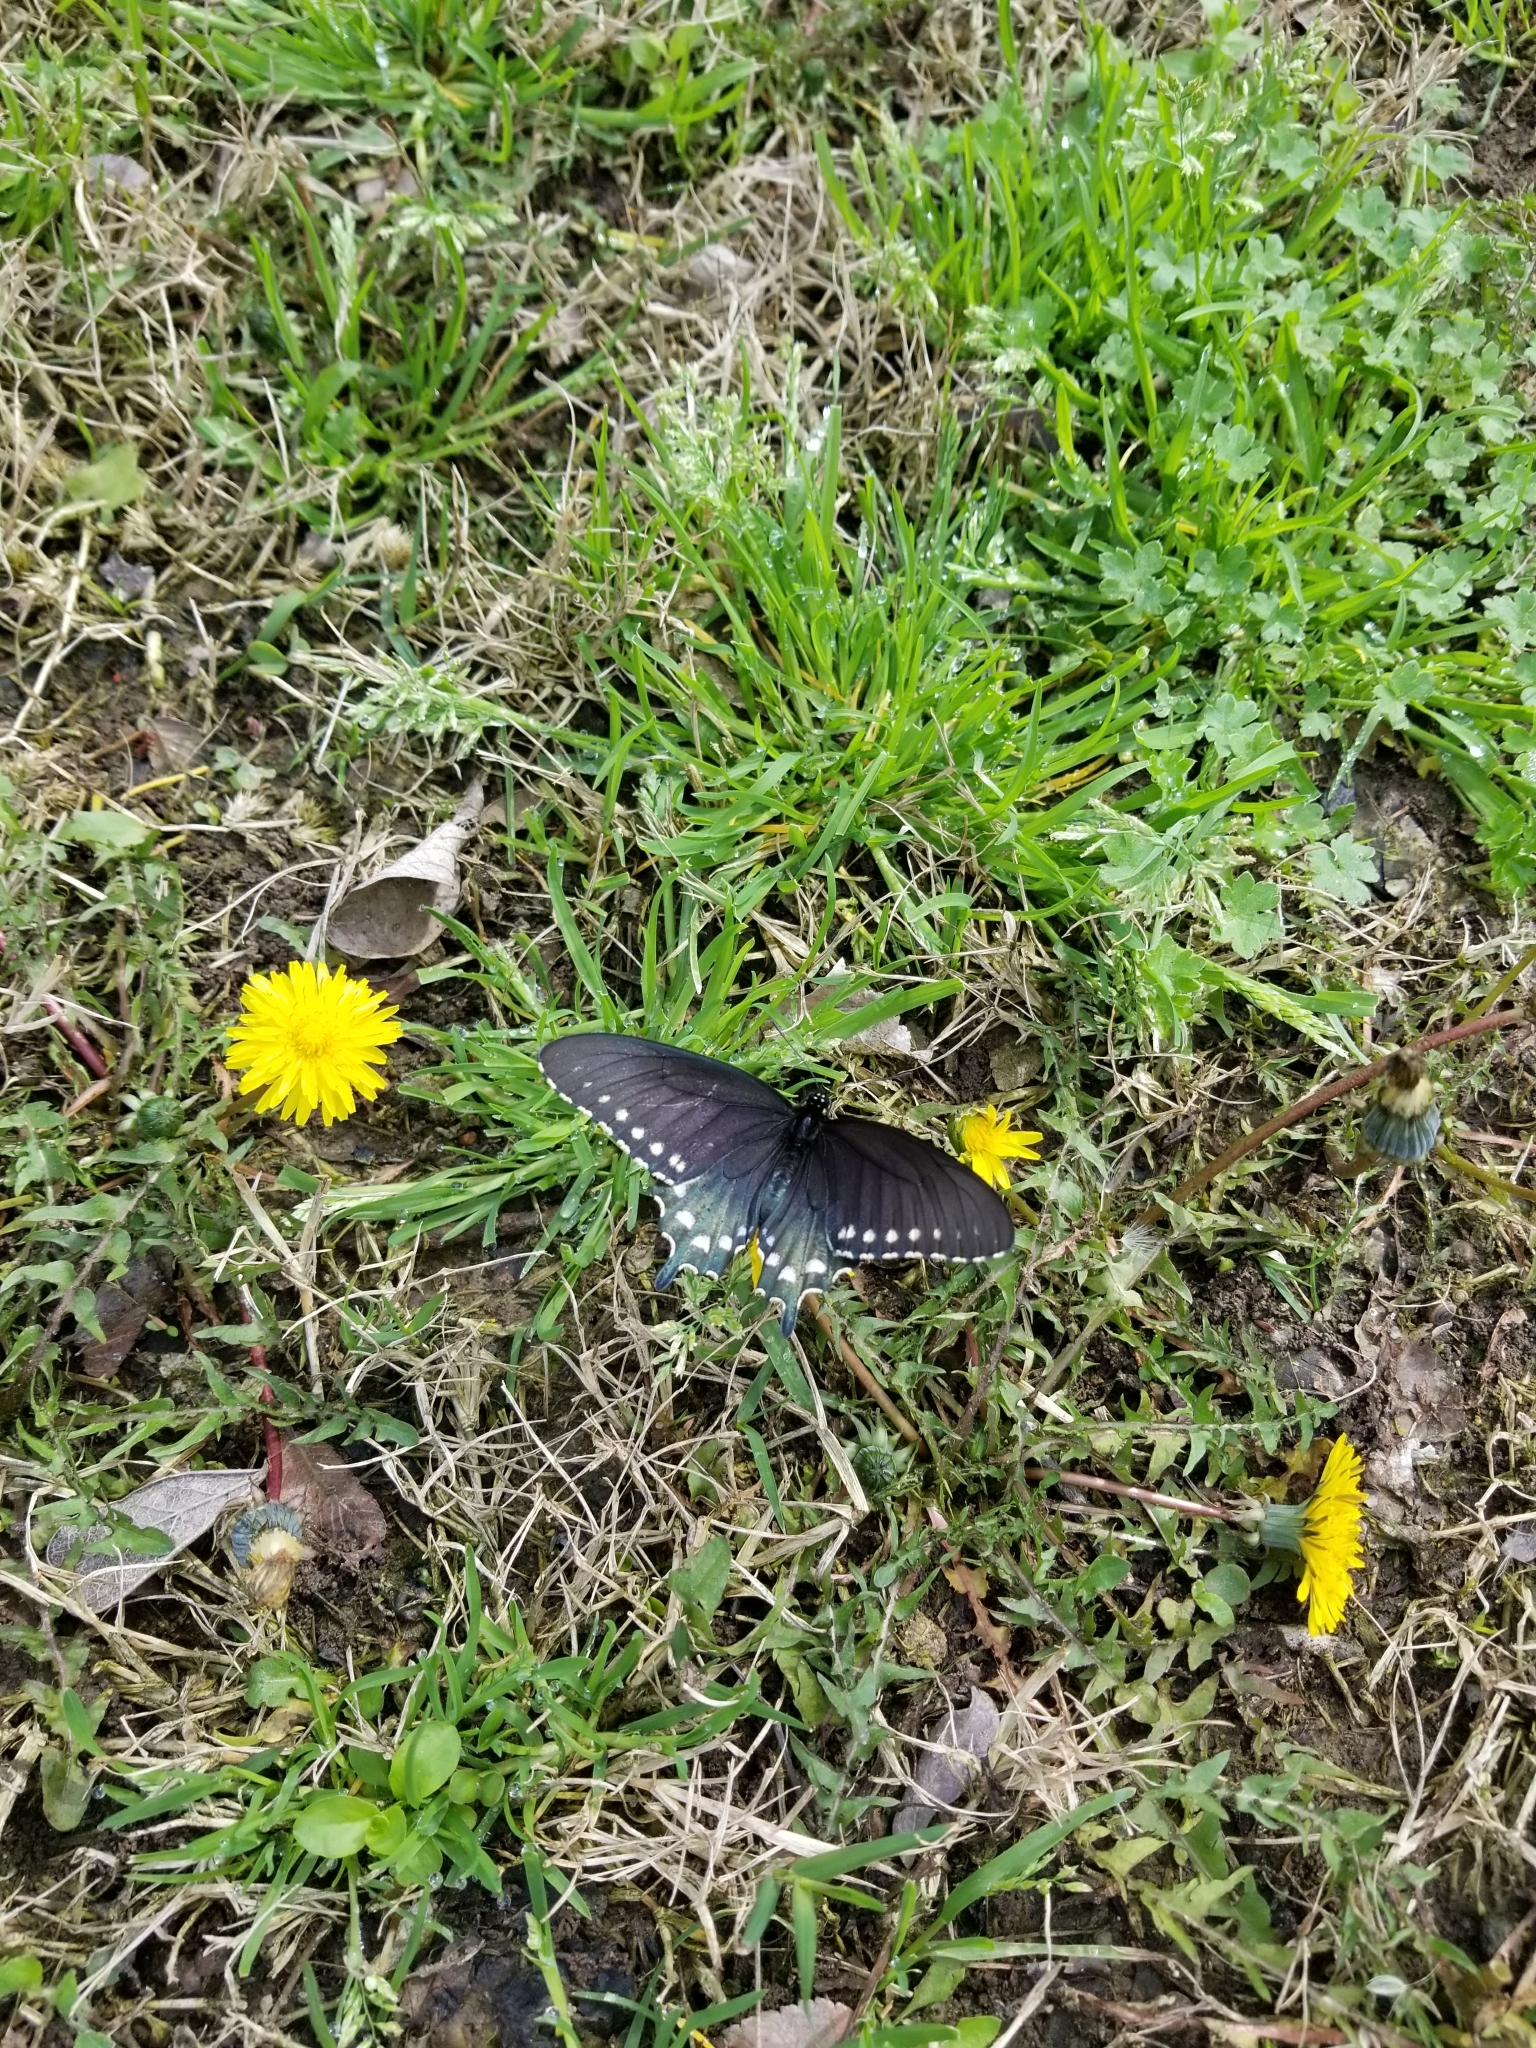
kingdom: Animalia
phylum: Arthropoda
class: Insecta
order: Lepidoptera
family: Papilionidae
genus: Battus
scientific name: Battus philenor
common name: Pipevine swallowtail
